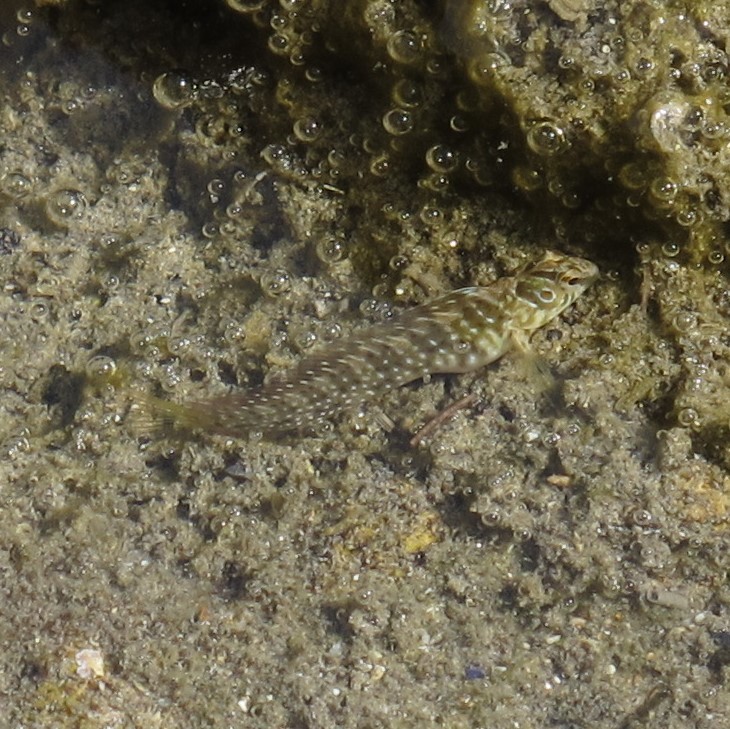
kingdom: Animalia
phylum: Chordata
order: Perciformes
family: Blenniidae
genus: Salaria
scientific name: Salaria pavo
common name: Peacock blenny
